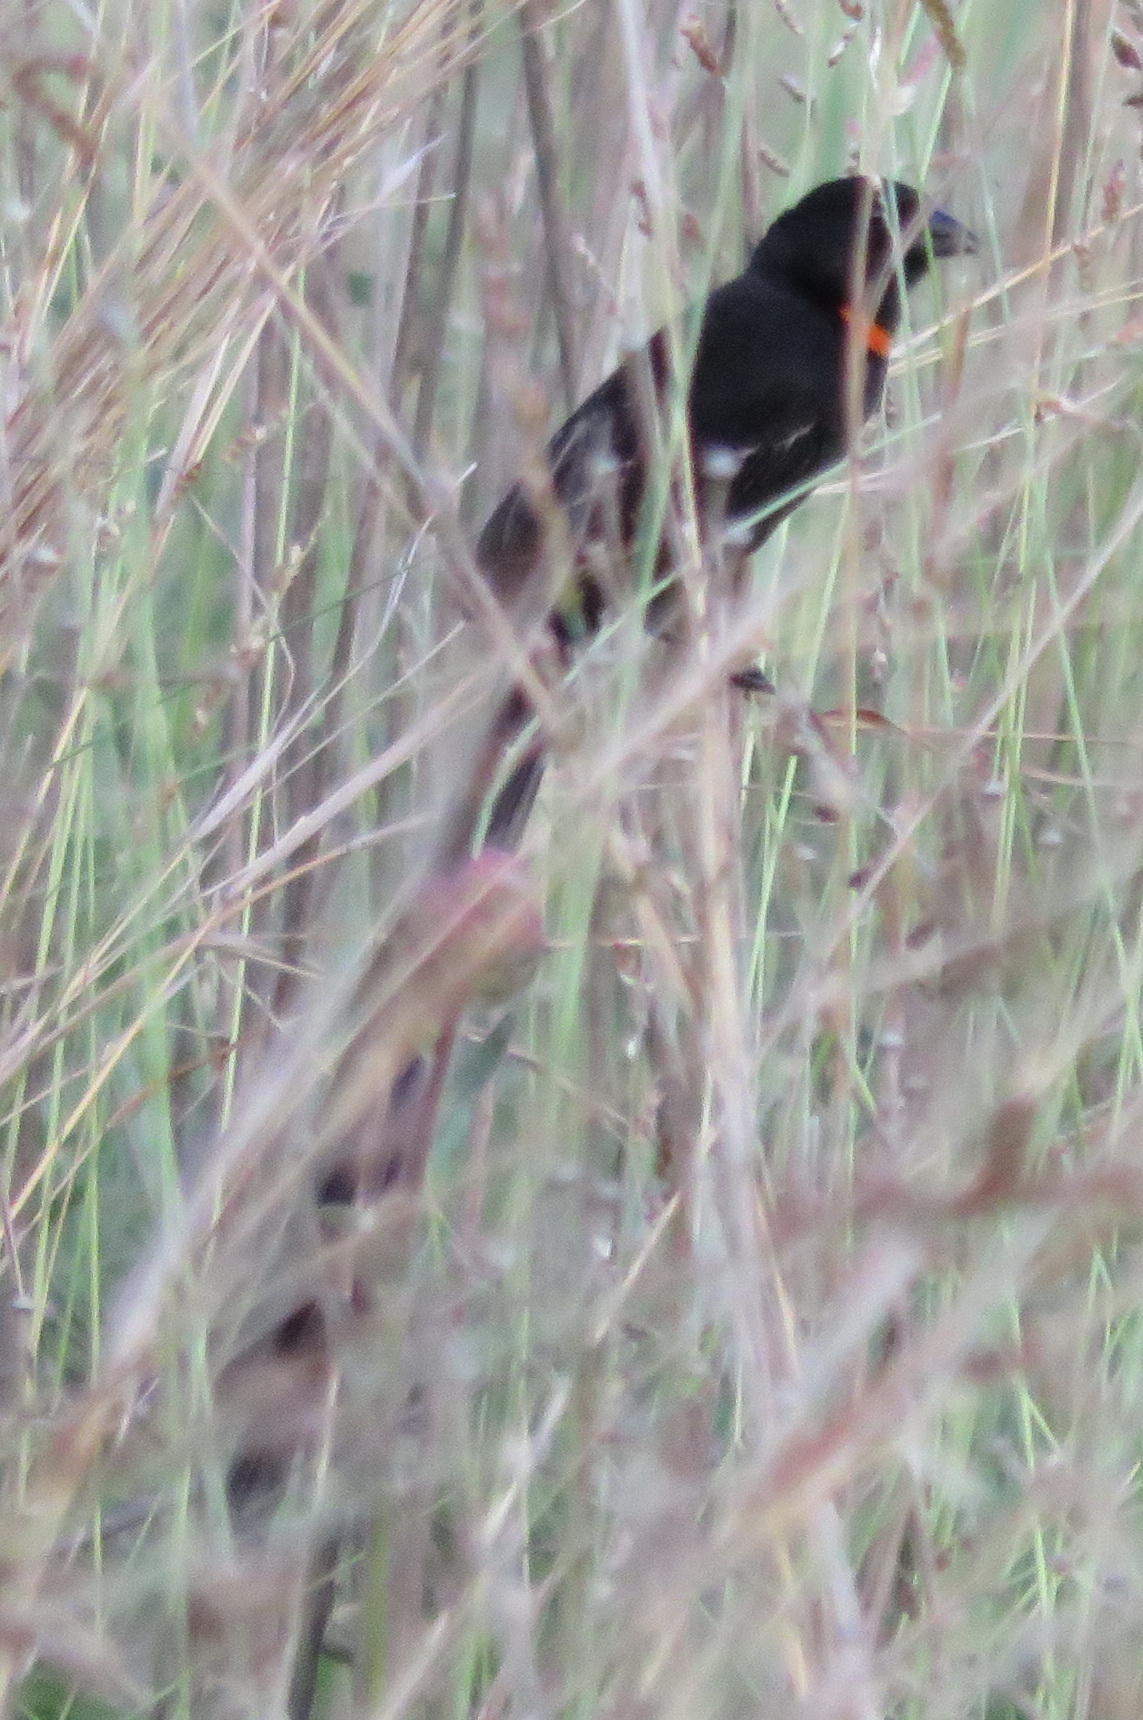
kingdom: Animalia
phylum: Chordata
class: Aves
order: Passeriformes
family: Ploceidae
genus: Euplectes
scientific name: Euplectes ardens
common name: Red-collared widowbird
